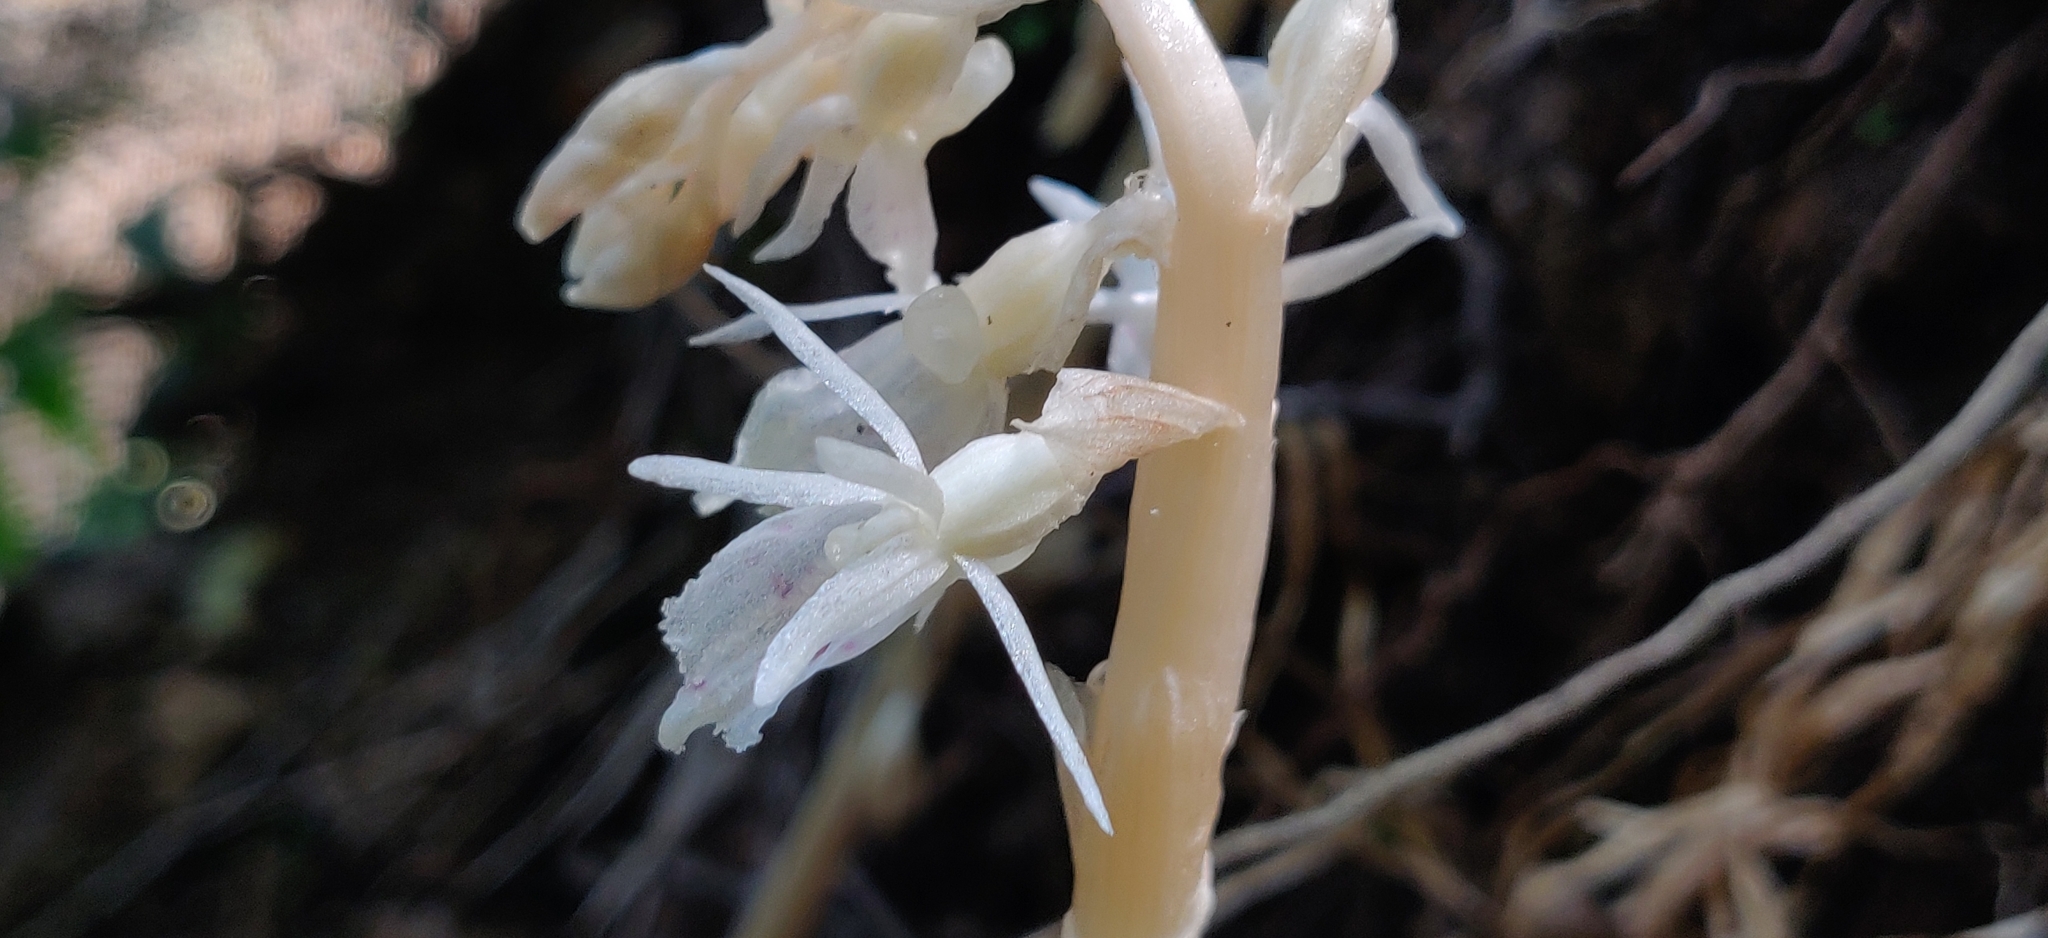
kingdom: Plantae
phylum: Tracheophyta
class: Liliopsida
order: Asparagales
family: Orchidaceae
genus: Epipogium
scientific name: Epipogium roseum
